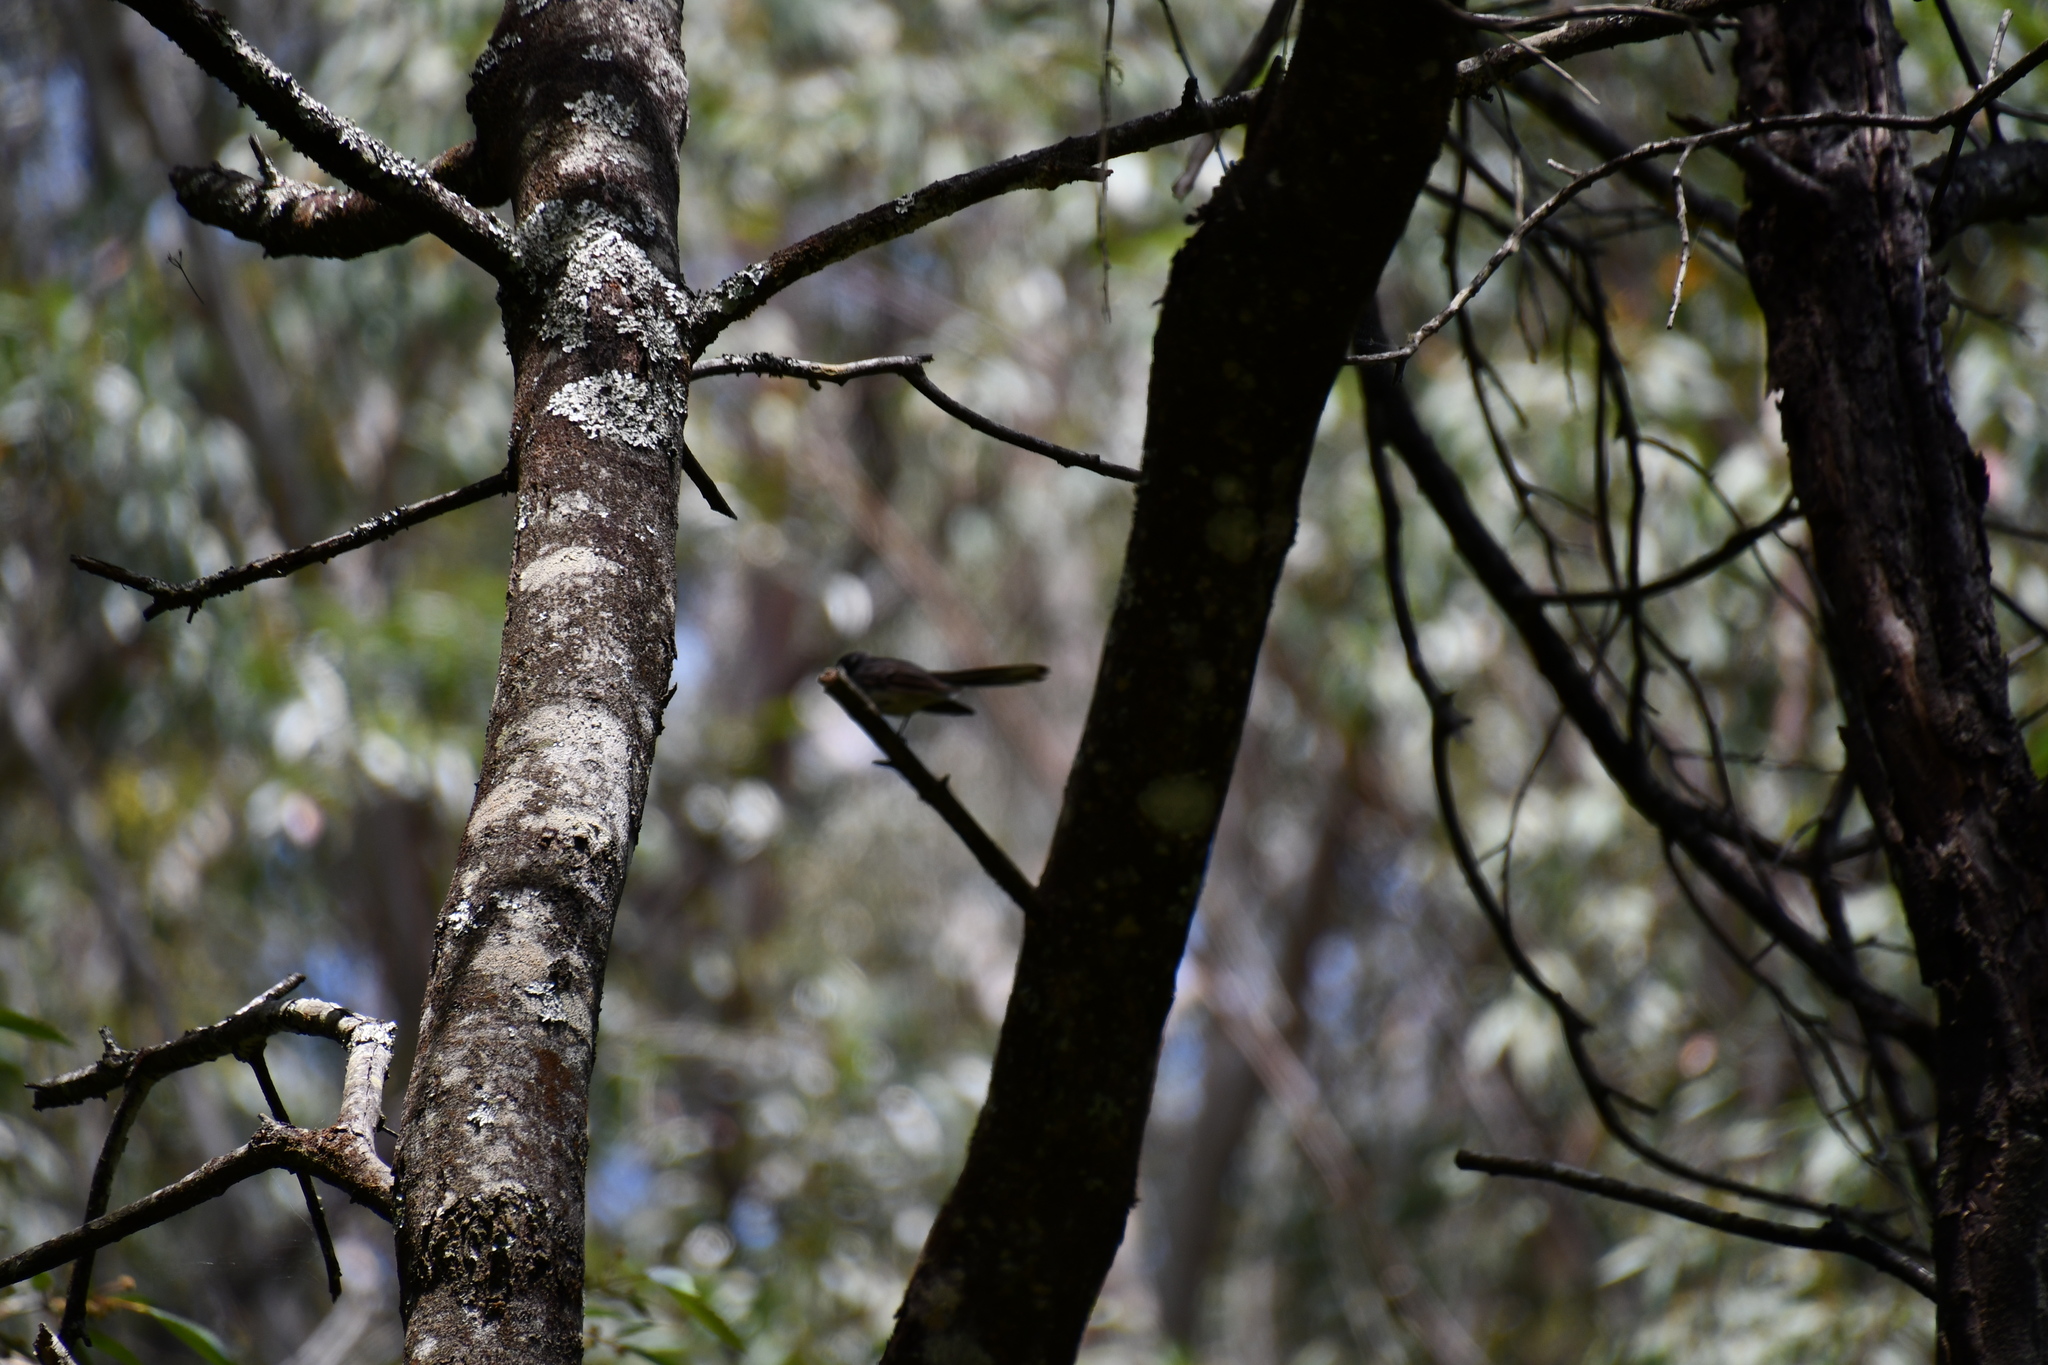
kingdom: Animalia
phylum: Chordata
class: Aves
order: Passeriformes
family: Rhipiduridae
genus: Rhipidura
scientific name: Rhipidura albiscapa
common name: Grey fantail
